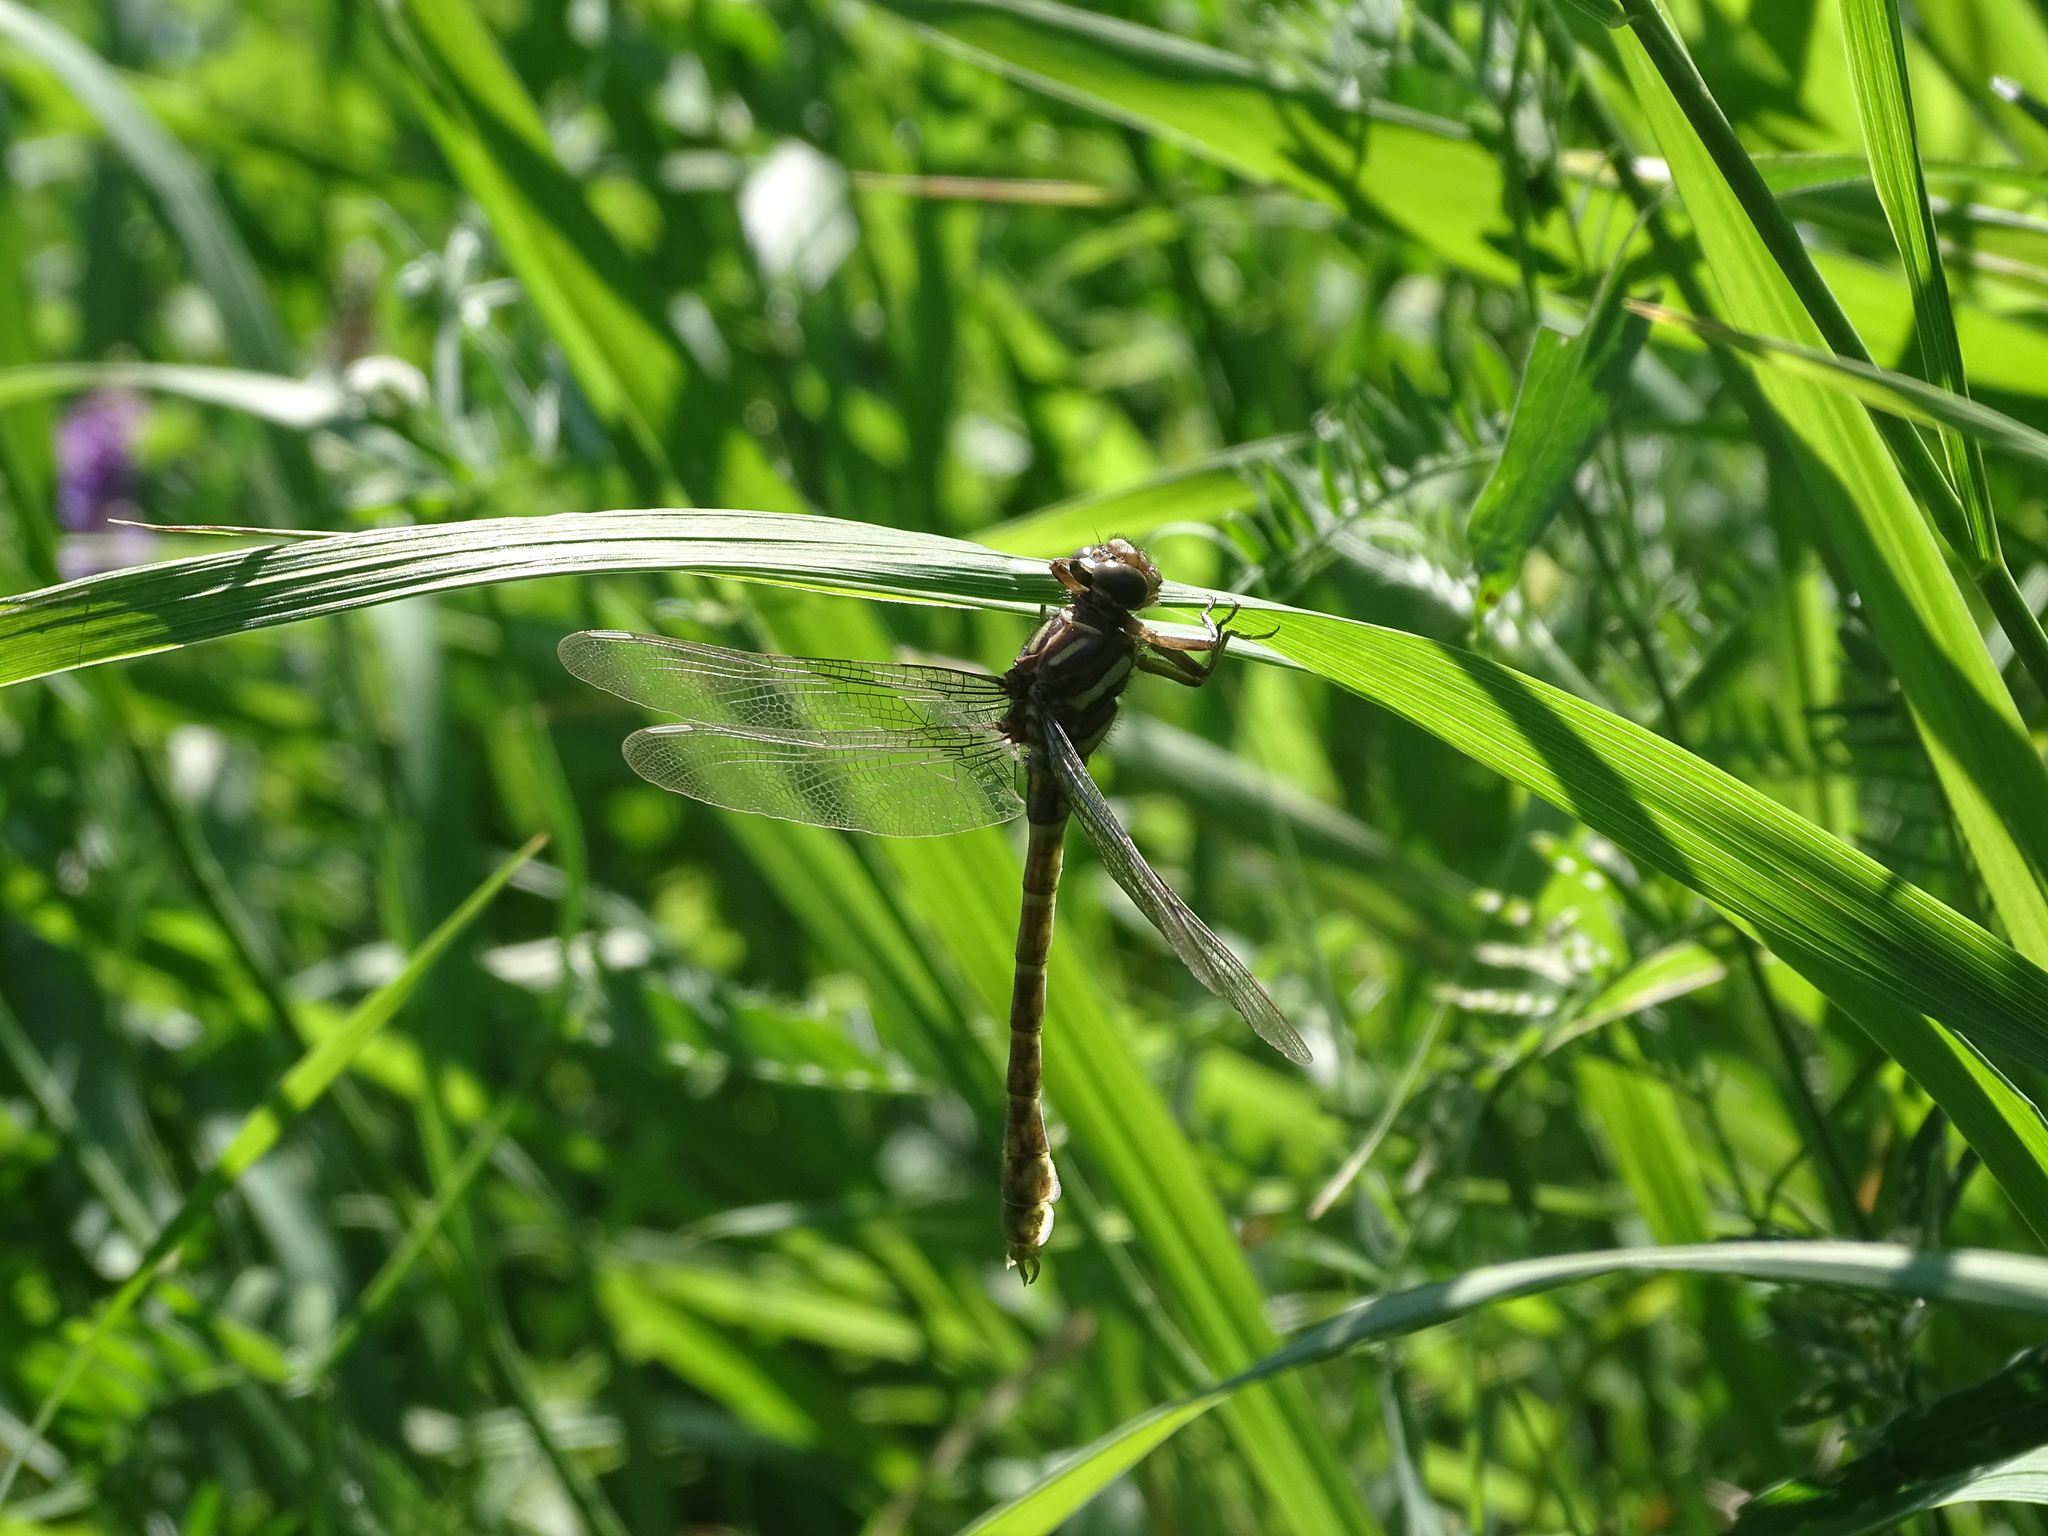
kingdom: Animalia
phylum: Arthropoda
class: Insecta
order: Odonata
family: Gomphidae
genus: Stylurus
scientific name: Stylurus scudderi
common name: Zebra clubtail
